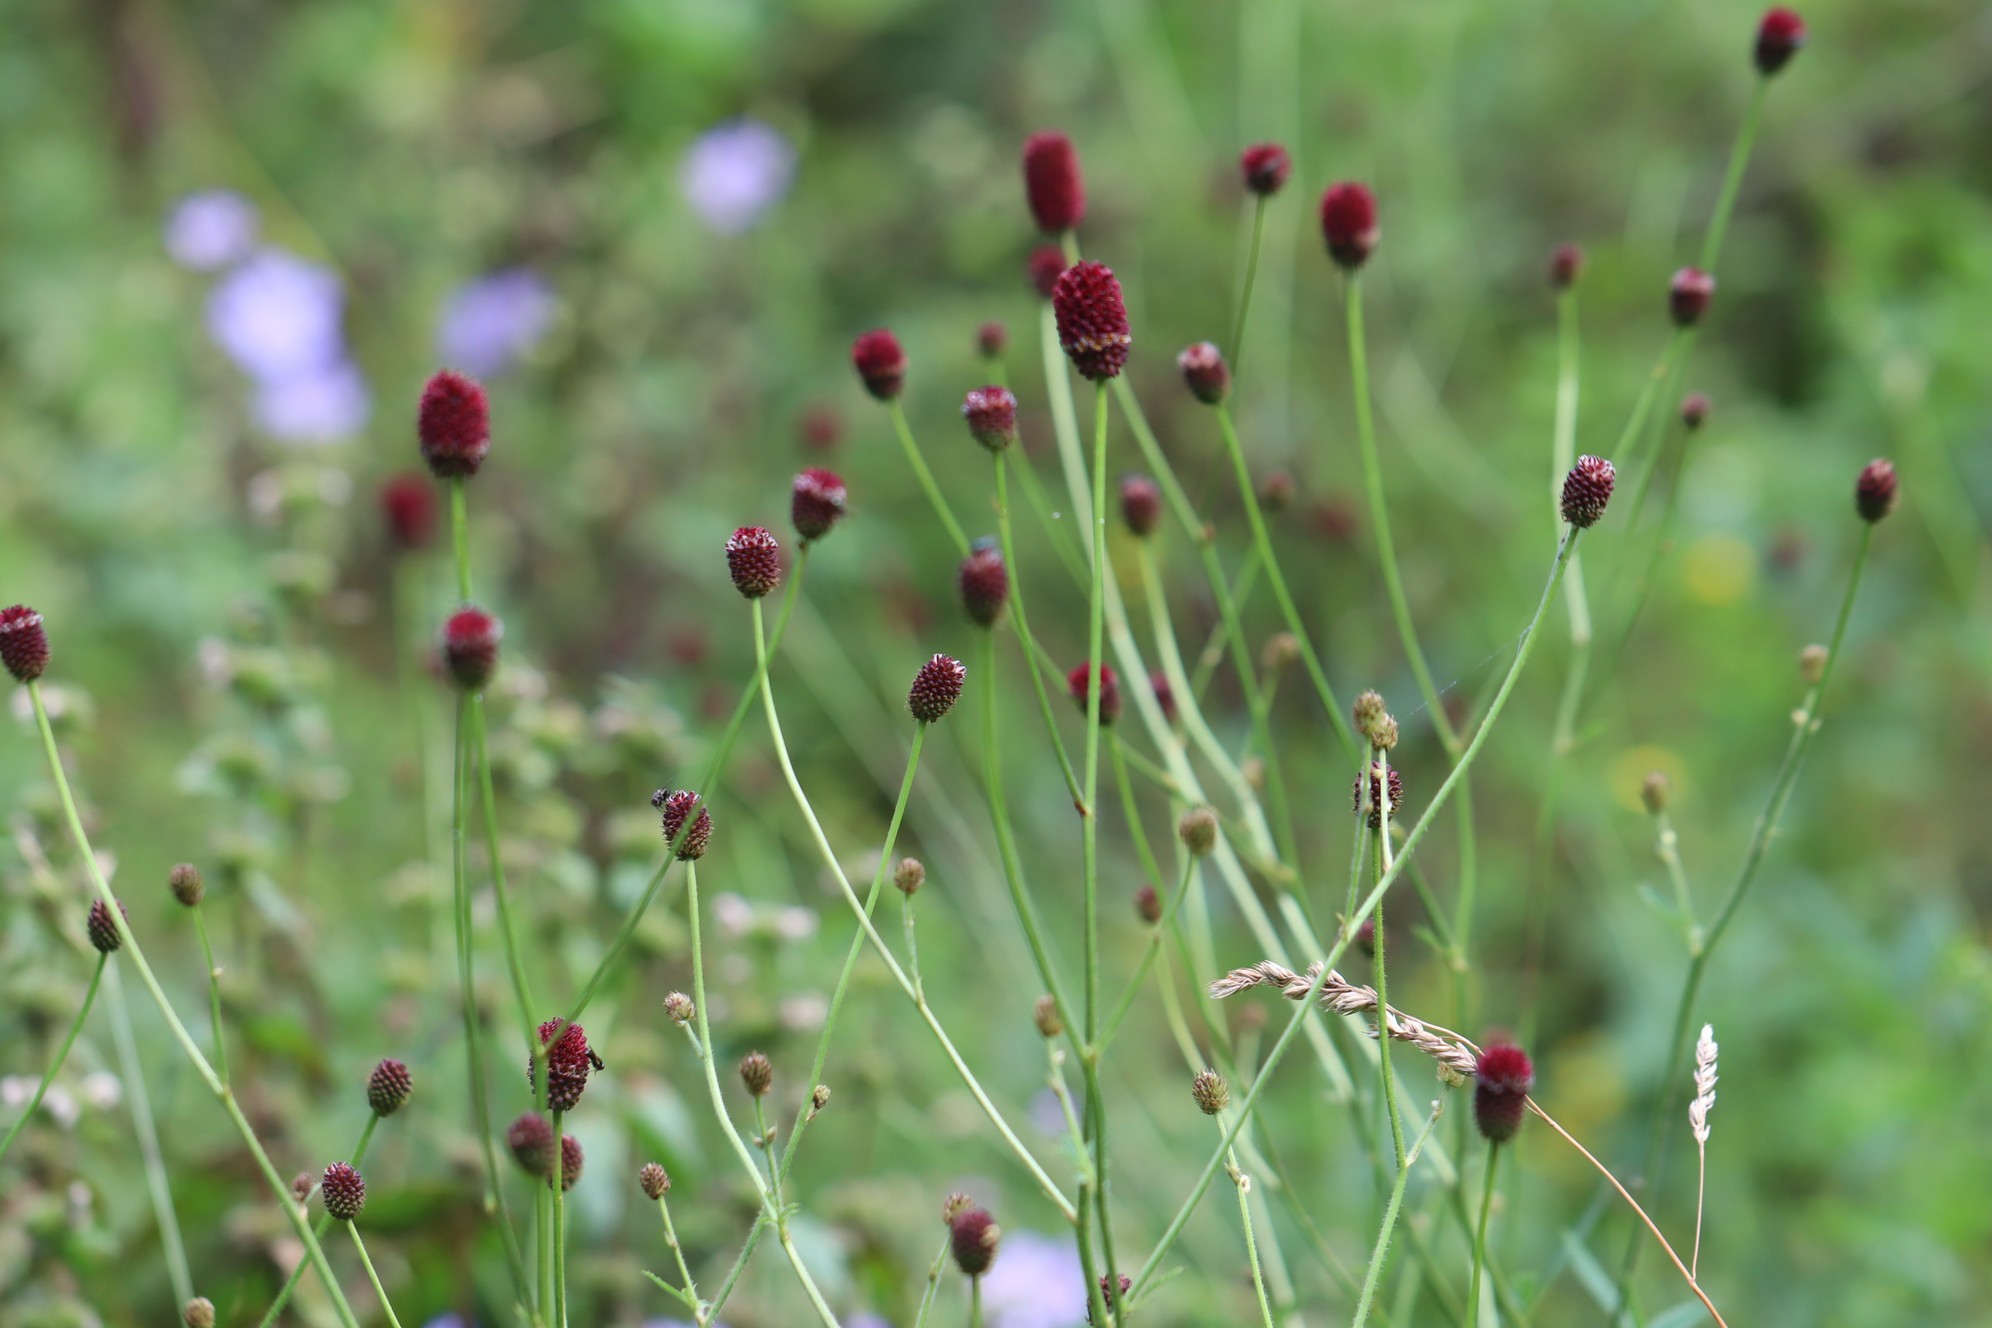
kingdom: Plantae
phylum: Tracheophyta
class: Magnoliopsida
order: Rosales
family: Rosaceae
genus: Sanguisorba
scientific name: Sanguisorba officinalis
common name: Great burnet
